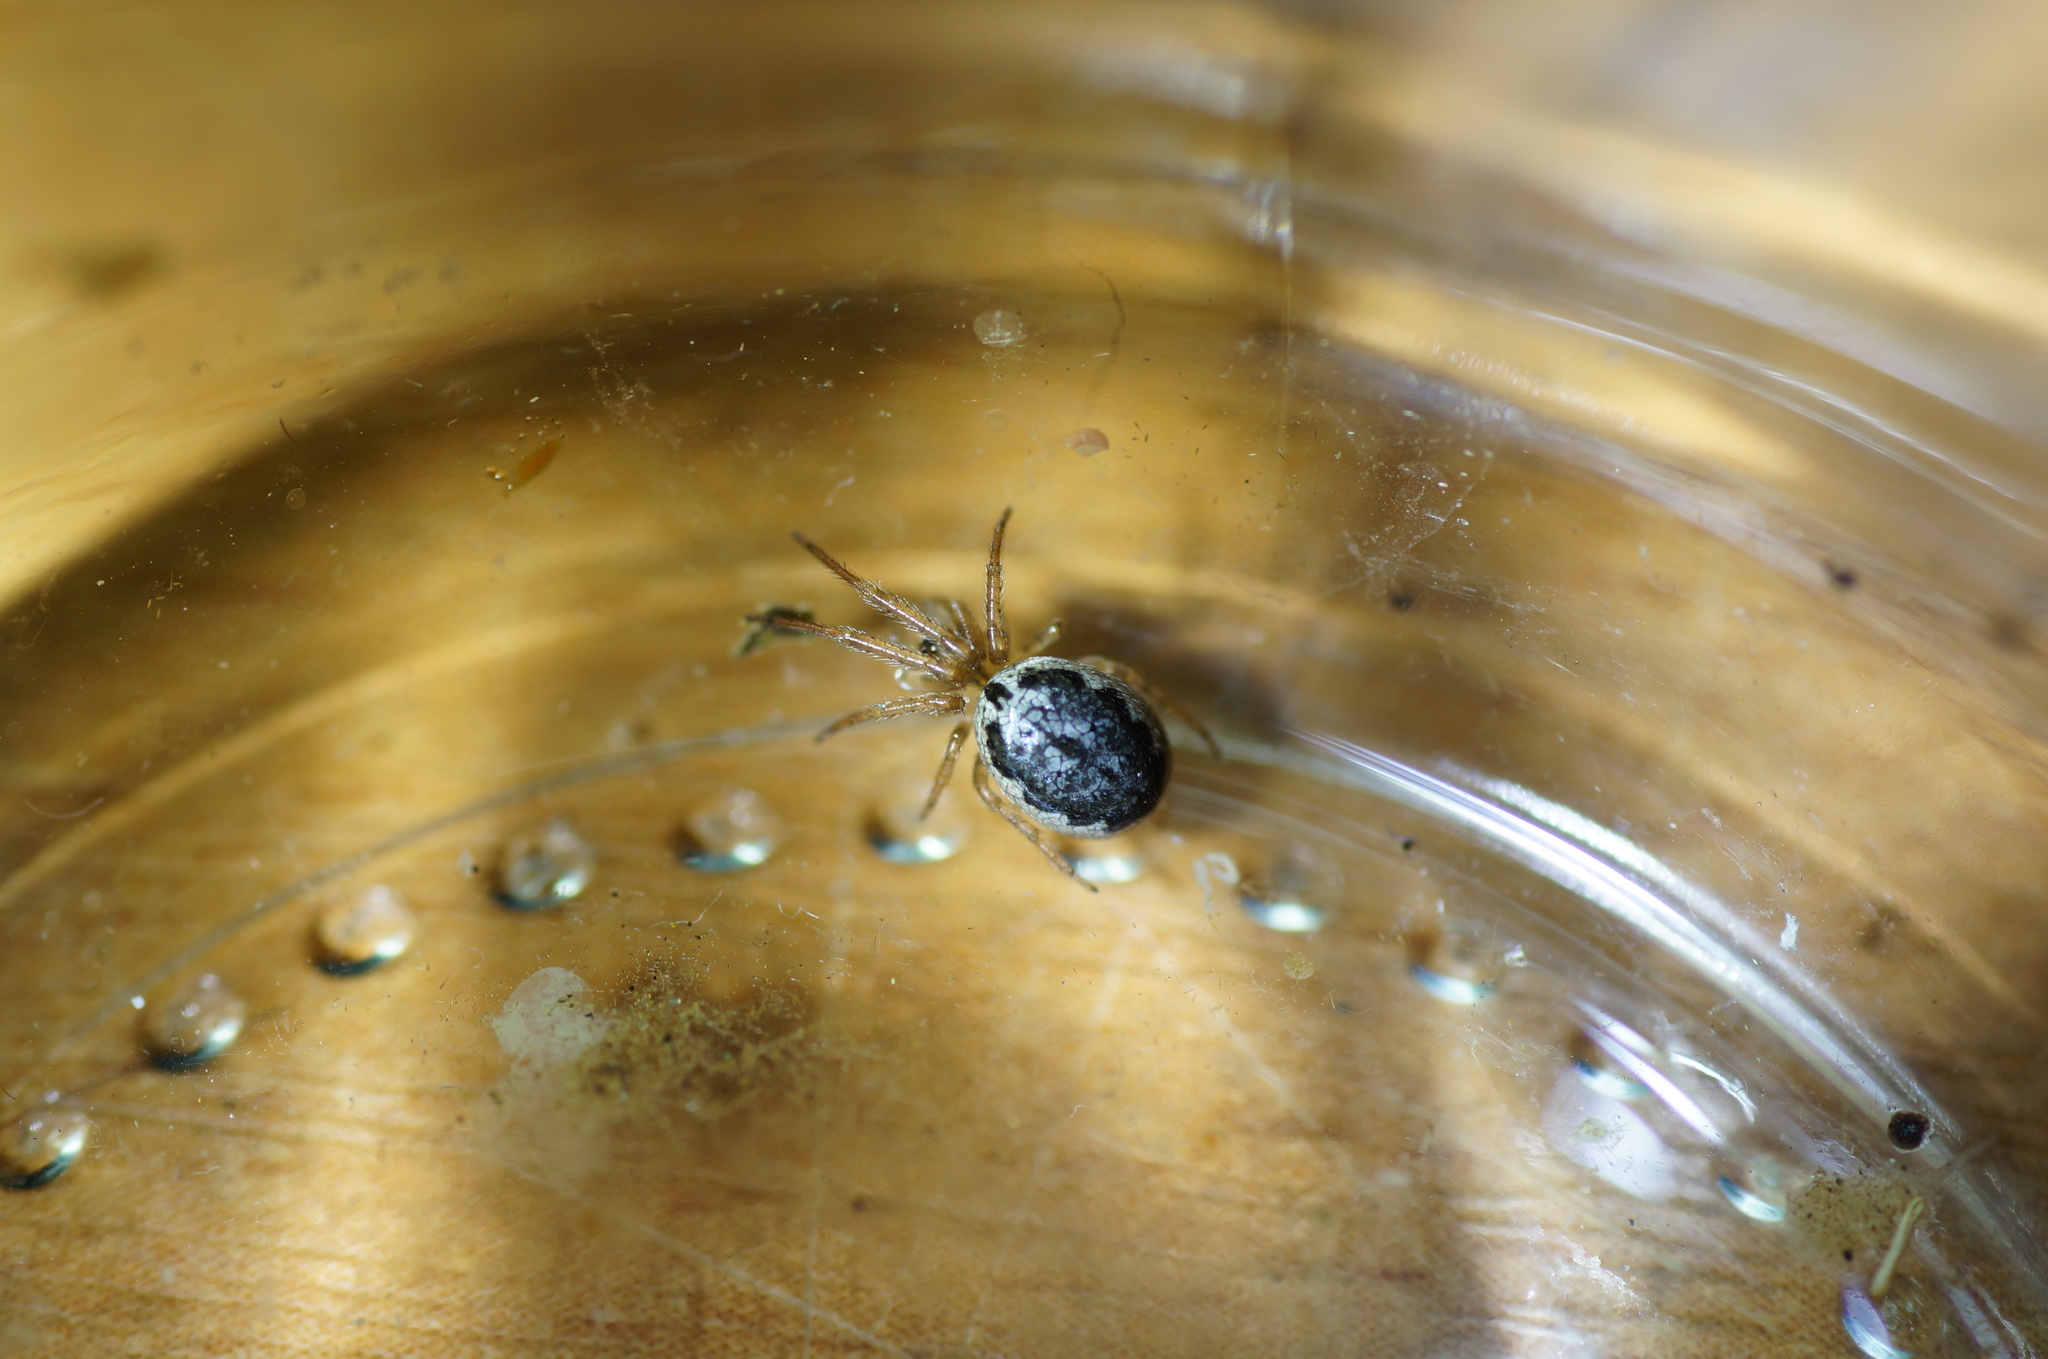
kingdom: Animalia
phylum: Arthropoda
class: Arachnida
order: Araneae
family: Araneidae
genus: Leviellus
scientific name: Leviellus stroemi
